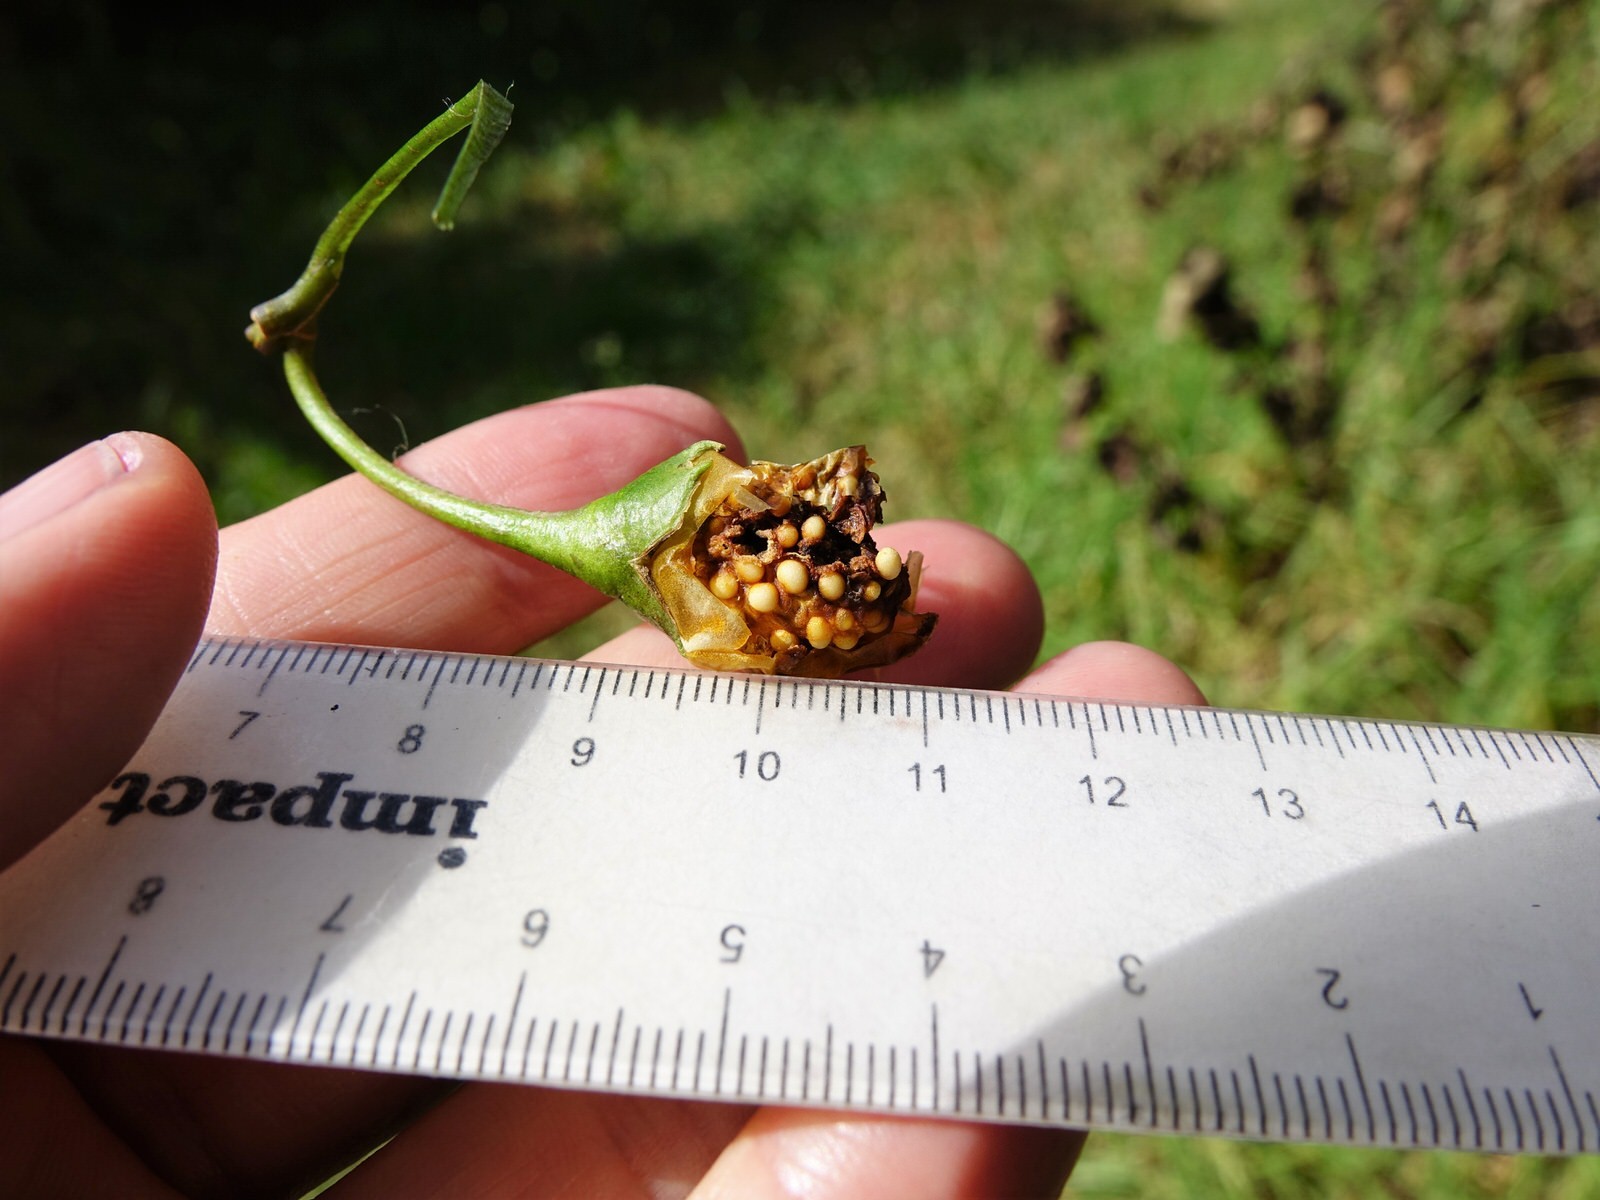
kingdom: Animalia
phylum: Arthropoda
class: Insecta
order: Coleoptera
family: Mycetophagidae
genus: Litargus
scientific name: Litargus balteatus
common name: Stored grain hairy fungus beetle
